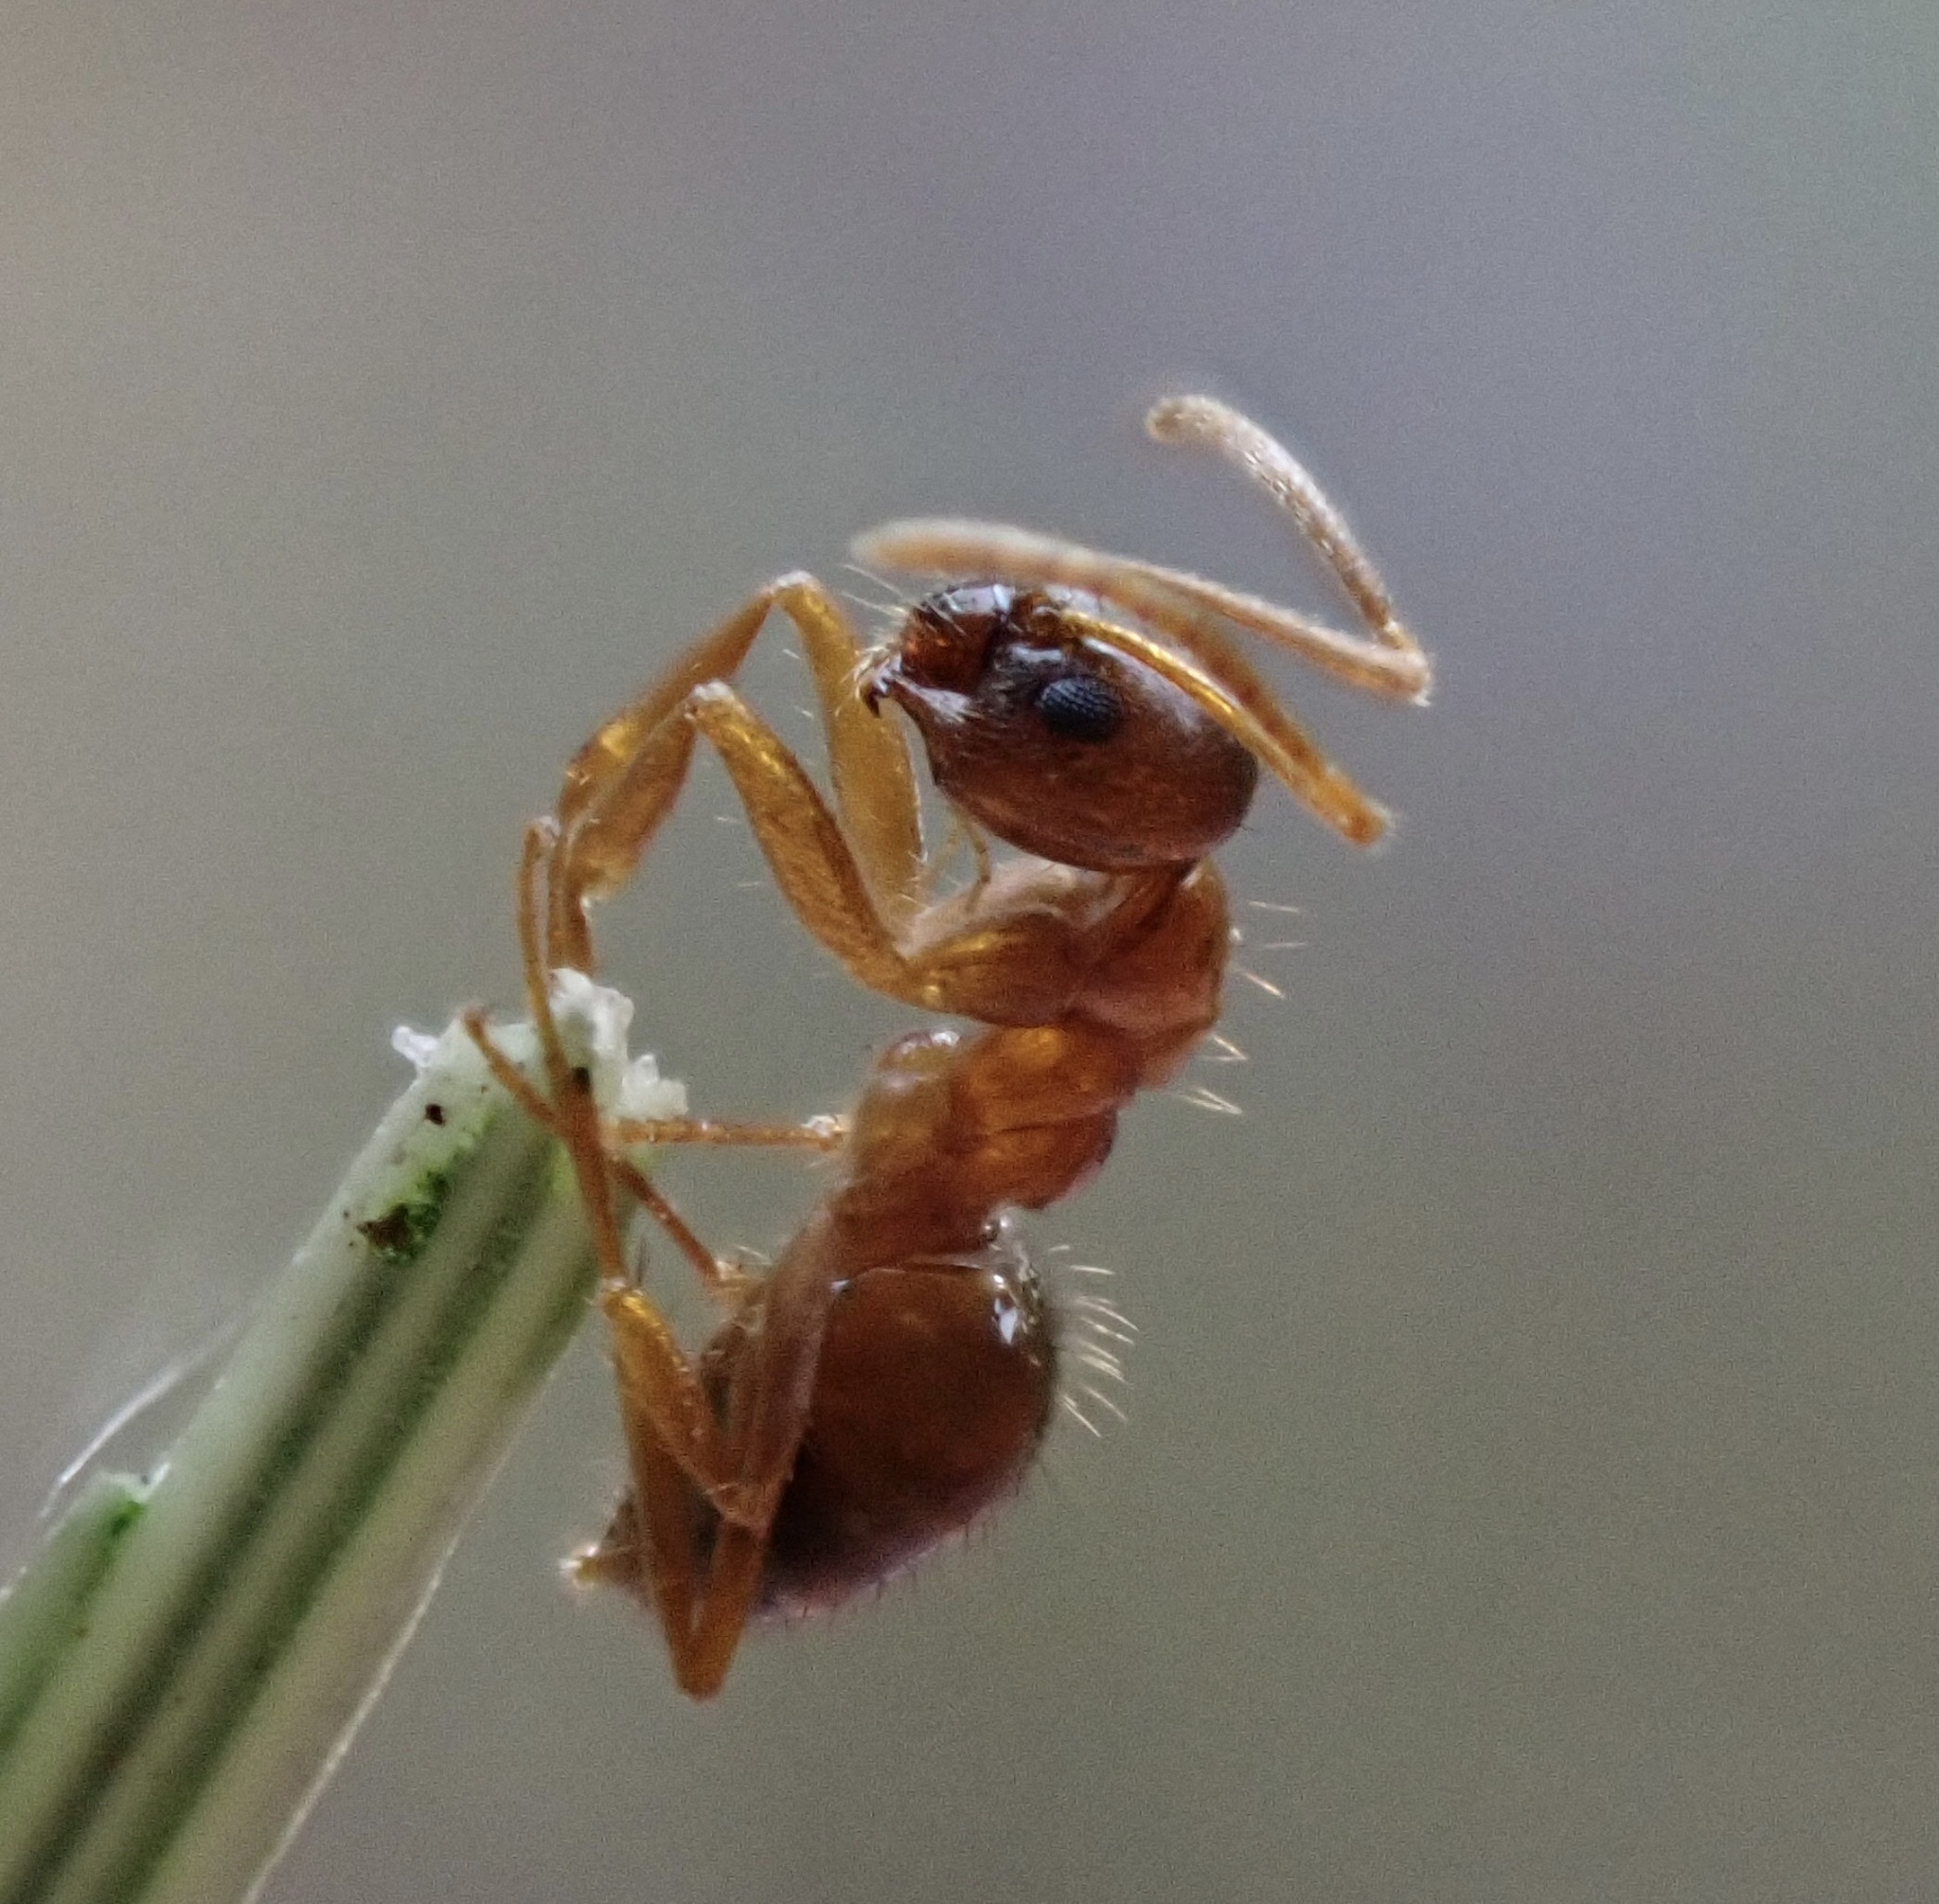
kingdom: Animalia
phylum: Arthropoda
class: Insecta
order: Hymenoptera
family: Formicidae
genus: Paratrechina
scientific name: Paratrechina flavipes
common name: Eastern asian formicine ant
